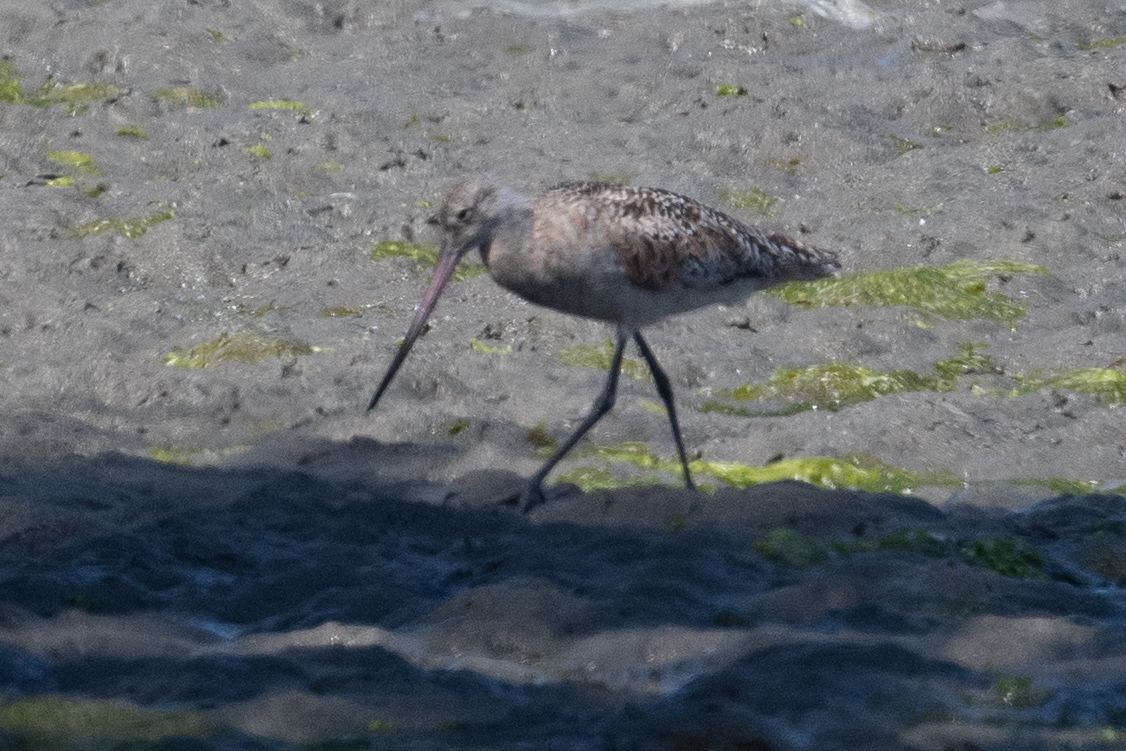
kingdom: Animalia
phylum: Chordata
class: Aves
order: Charadriiformes
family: Scolopacidae
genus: Limosa
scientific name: Limosa fedoa
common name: Marbled godwit
